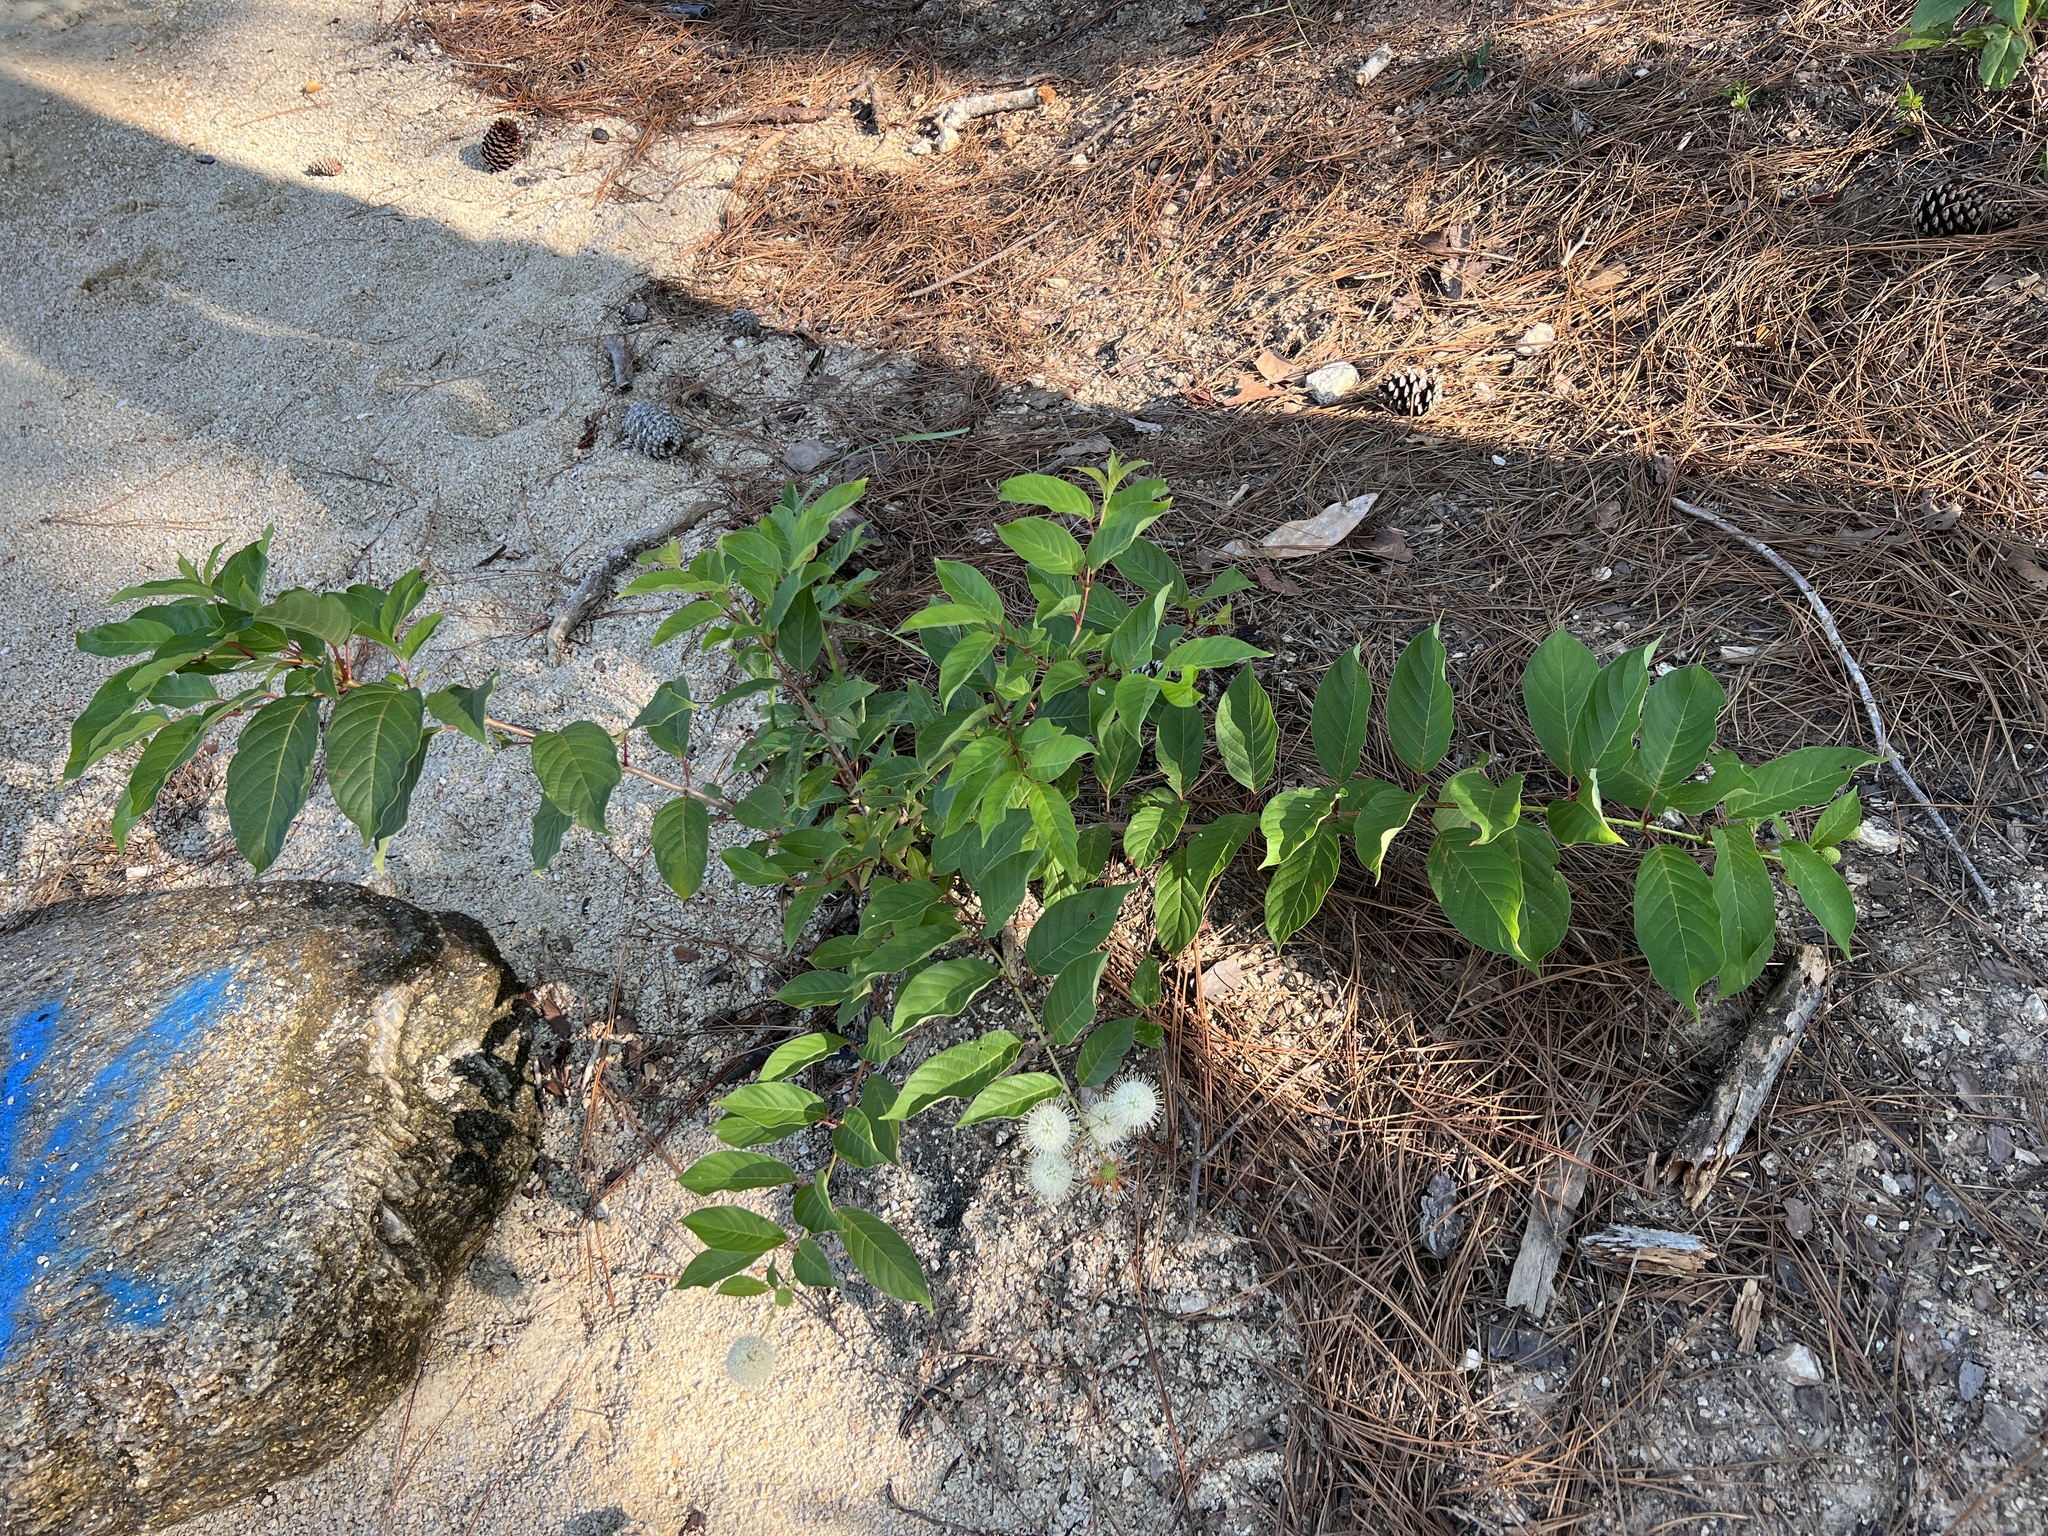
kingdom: Plantae
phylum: Tracheophyta
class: Magnoliopsida
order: Gentianales
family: Rubiaceae
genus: Cephalanthus
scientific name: Cephalanthus occidentalis
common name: Button-willow
